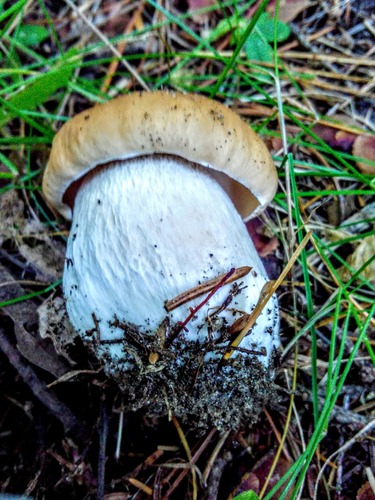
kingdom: Fungi
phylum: Basidiomycota
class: Agaricomycetes
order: Boletales
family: Boletaceae
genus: Boletus
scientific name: Boletus edulis
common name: Cep
